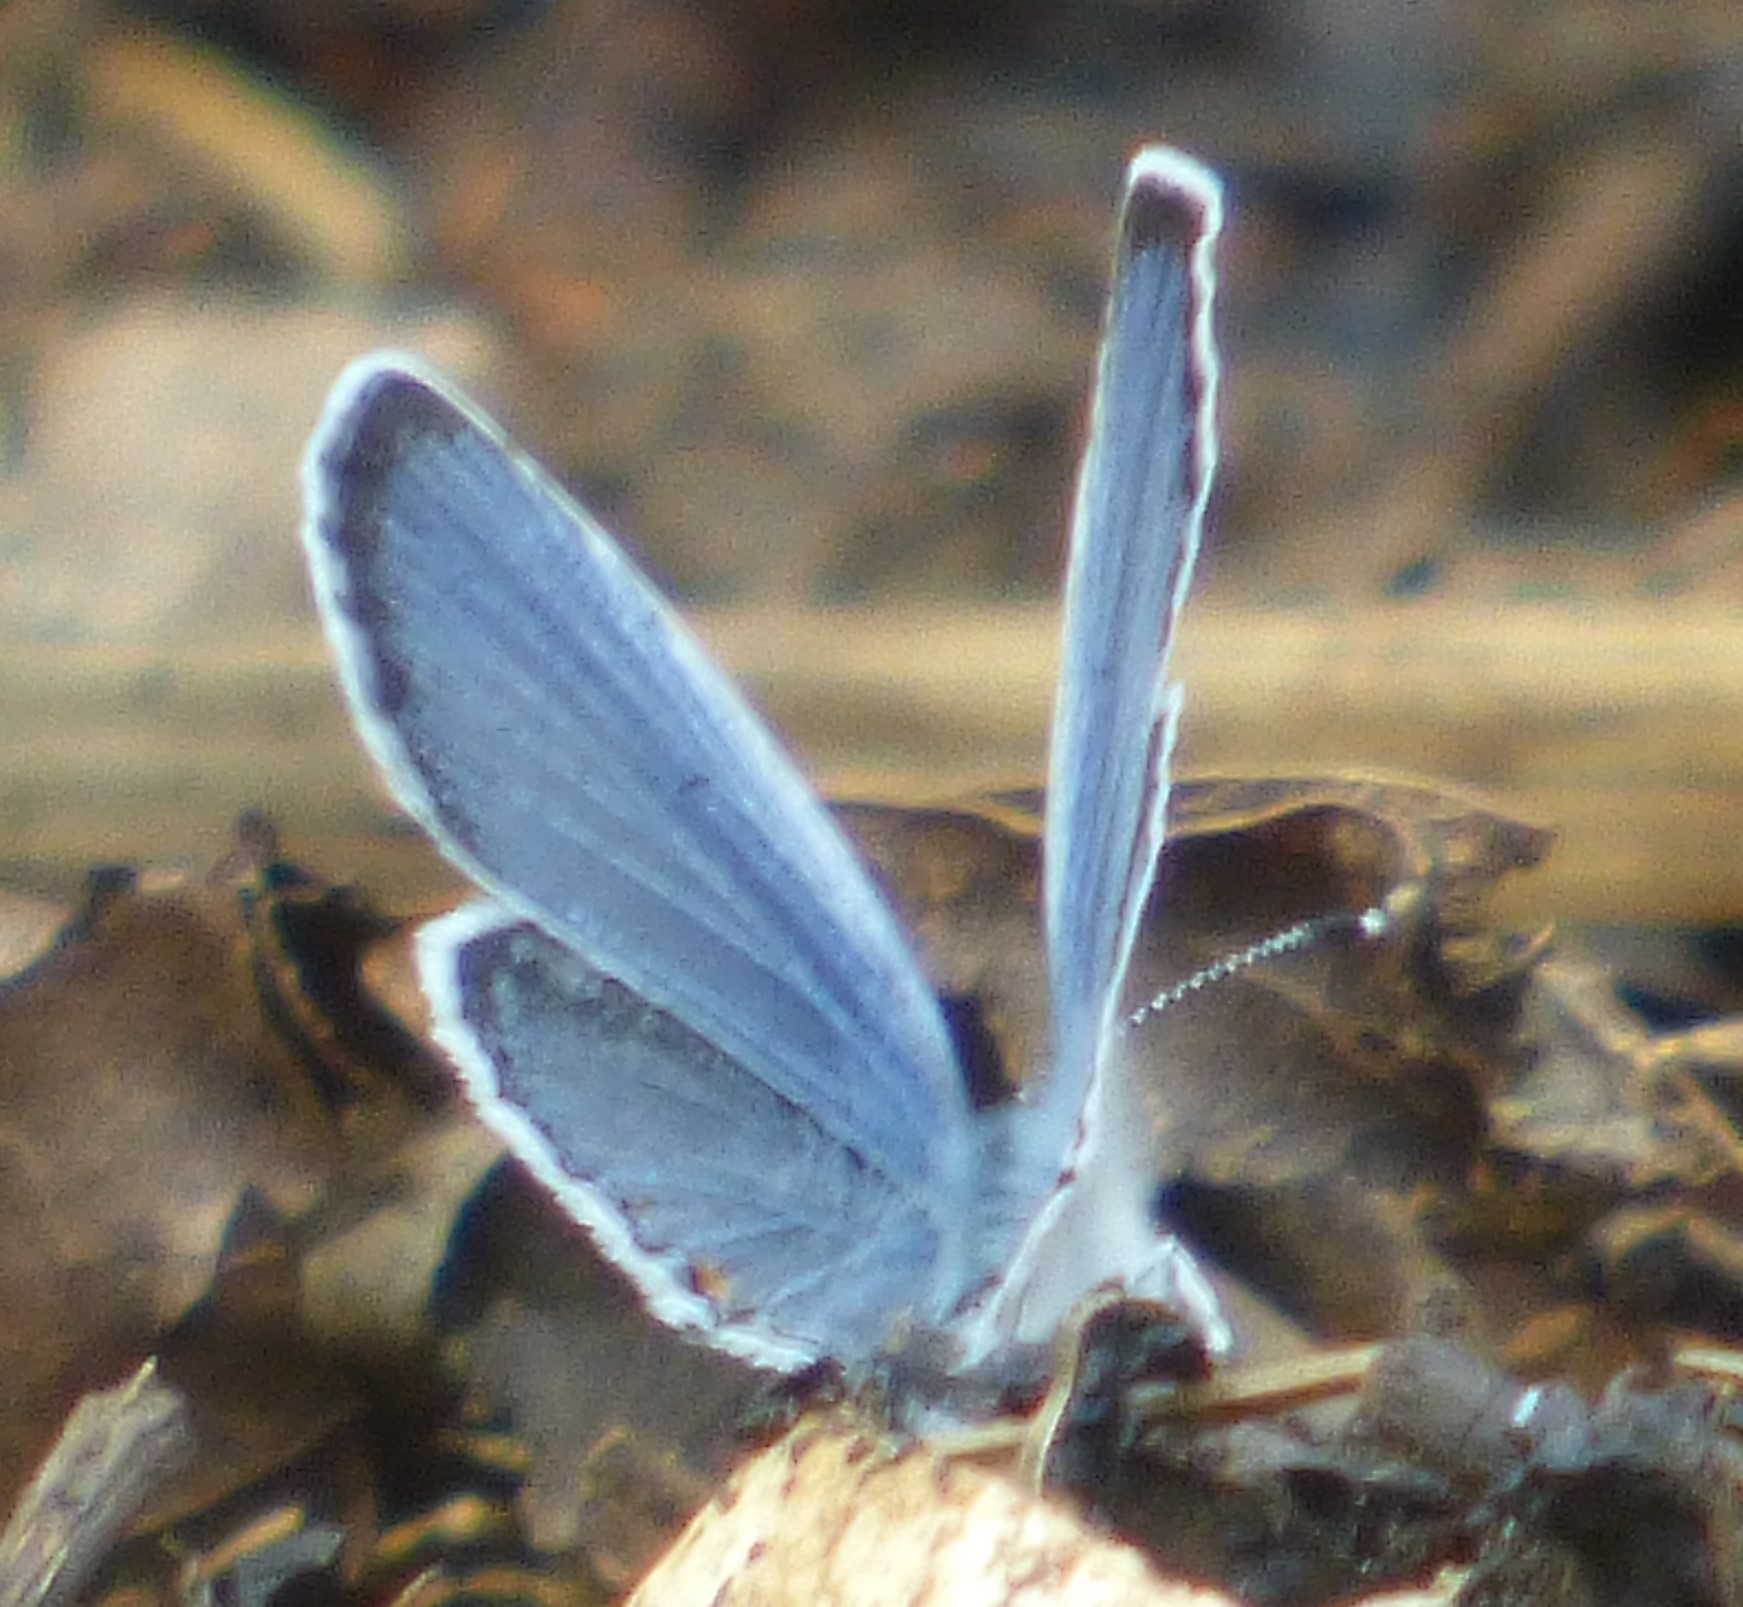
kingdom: Animalia
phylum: Arthropoda
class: Insecta
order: Lepidoptera
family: Lycaenidae
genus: Elkalyce
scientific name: Elkalyce comyntas
